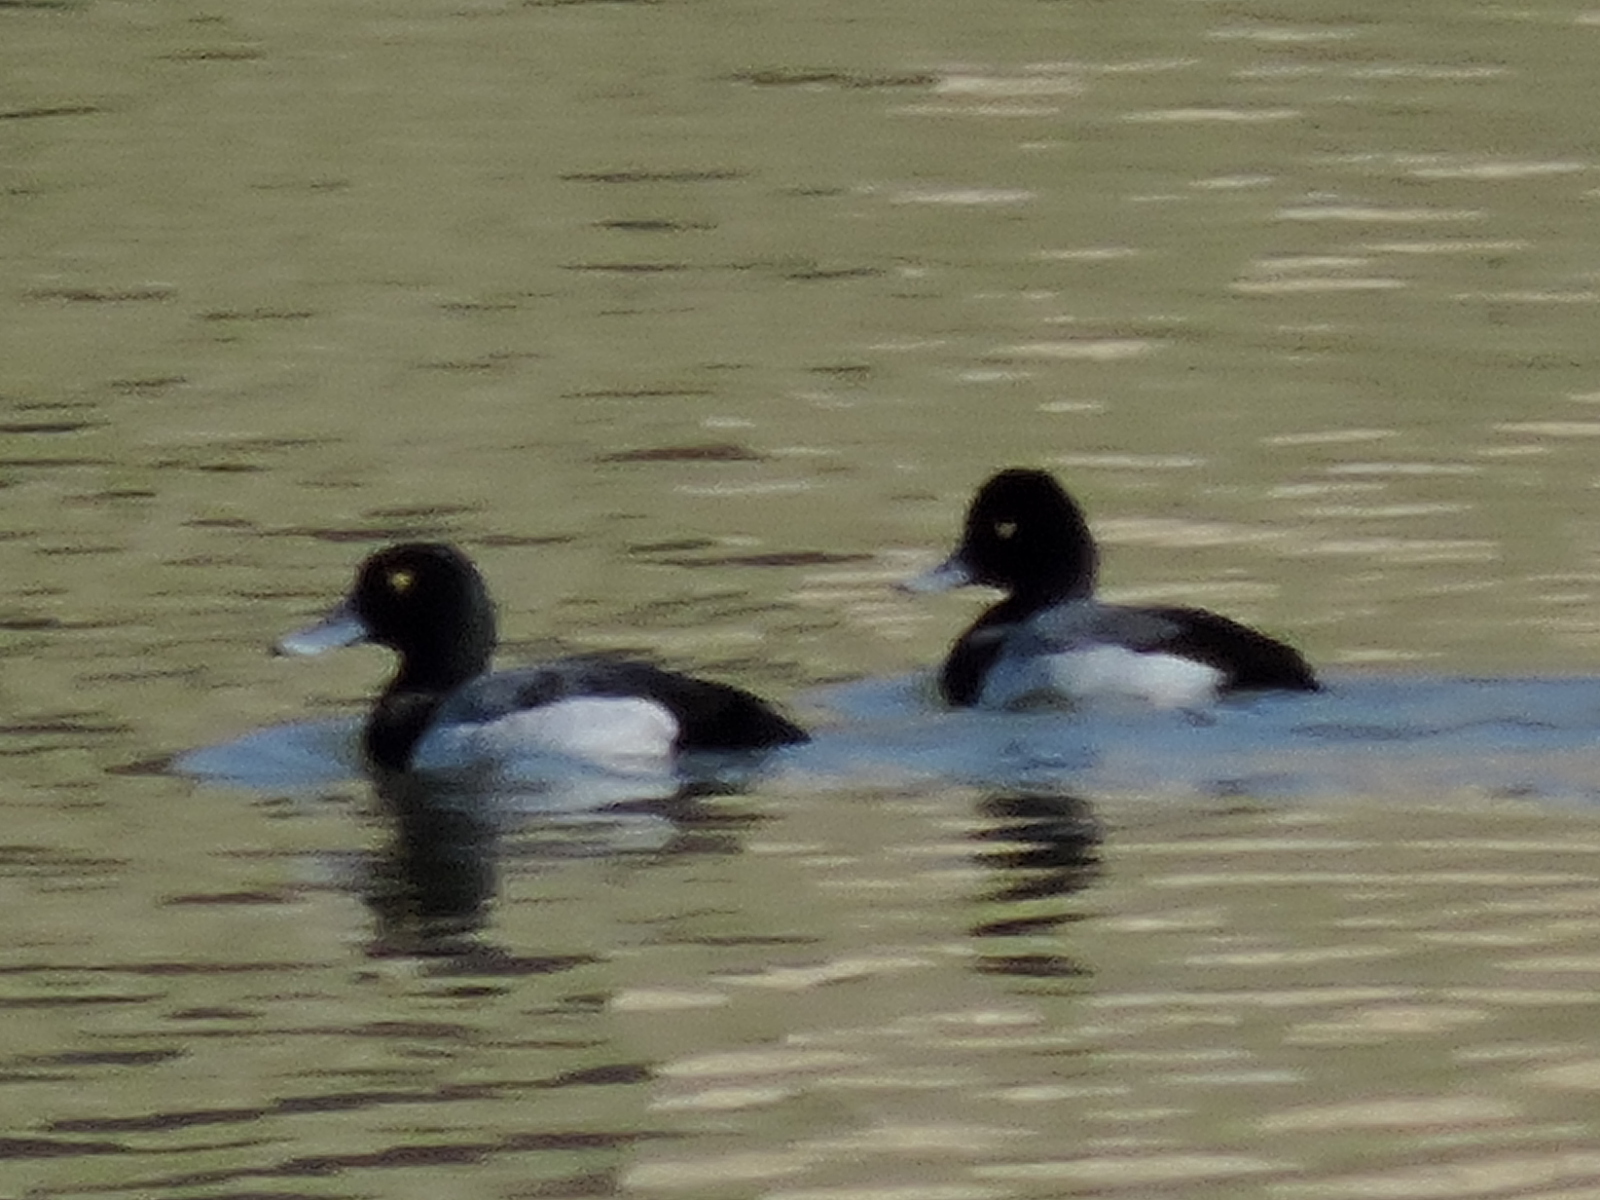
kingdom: Animalia
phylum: Chordata
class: Aves
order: Anseriformes
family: Anatidae
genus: Aythya
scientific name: Aythya marila
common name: Greater scaup
